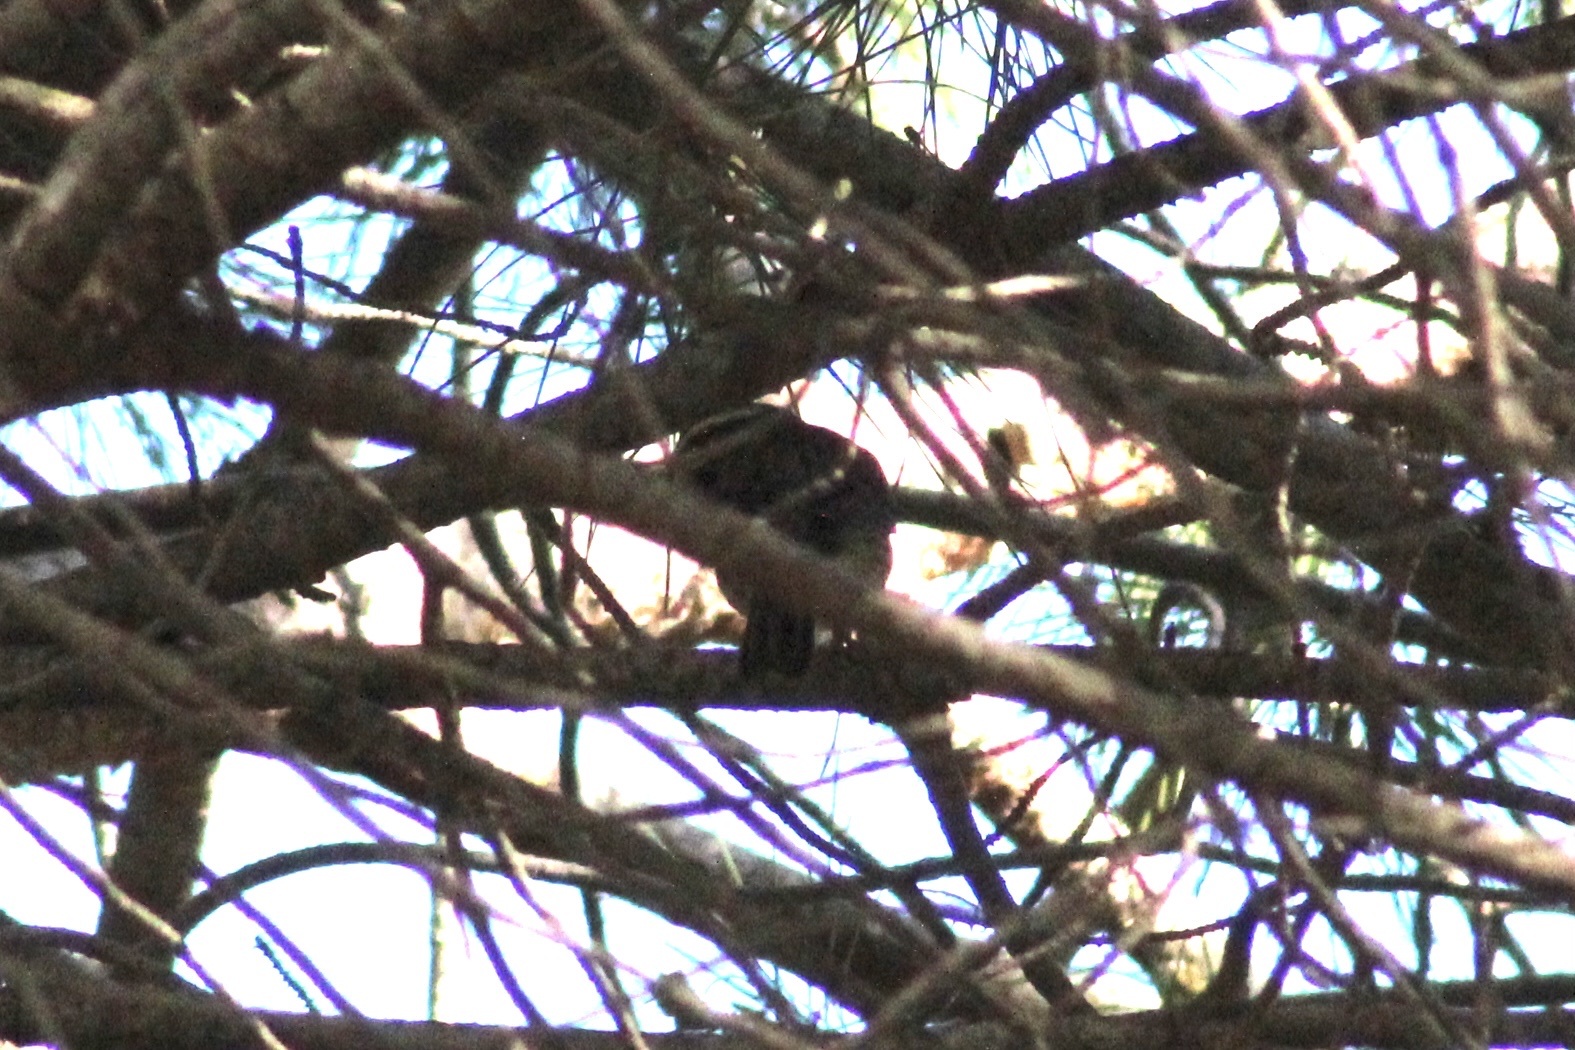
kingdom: Animalia
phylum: Chordata
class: Aves
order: Passeriformes
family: Emberizidae
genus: Emberiza
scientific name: Emberiza cirlus
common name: Cirl bunting
